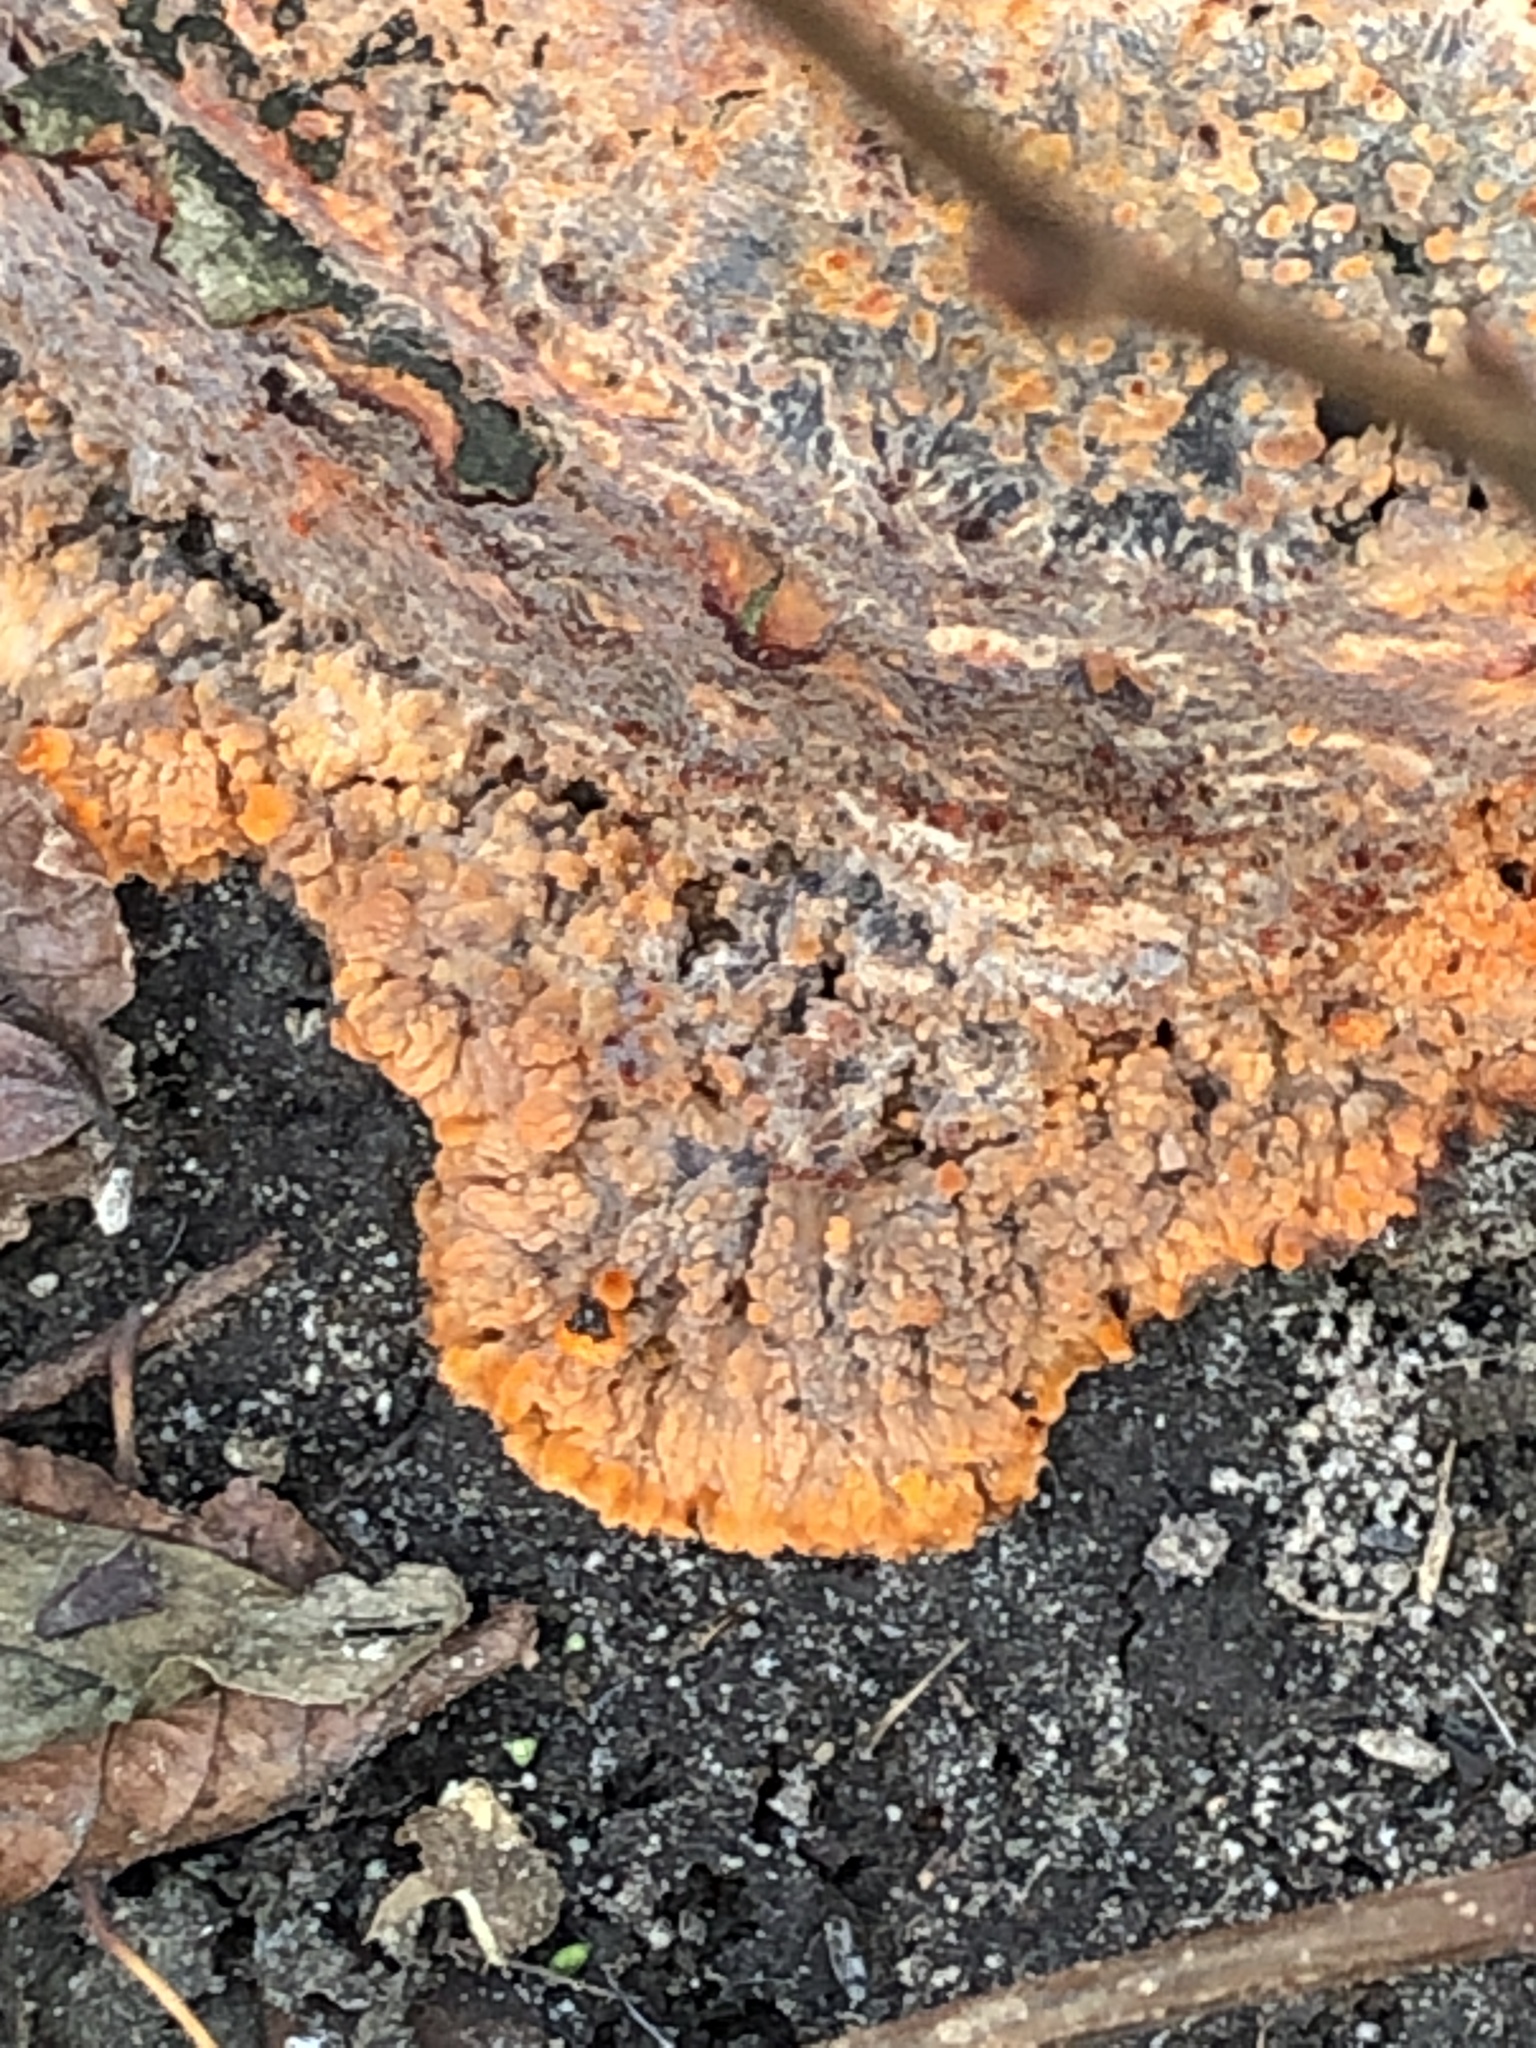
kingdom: Fungi
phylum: Basidiomycota
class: Agaricomycetes
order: Polyporales
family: Meruliaceae
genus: Phlebia
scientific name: Phlebia radiata
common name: Wrinkled crust
